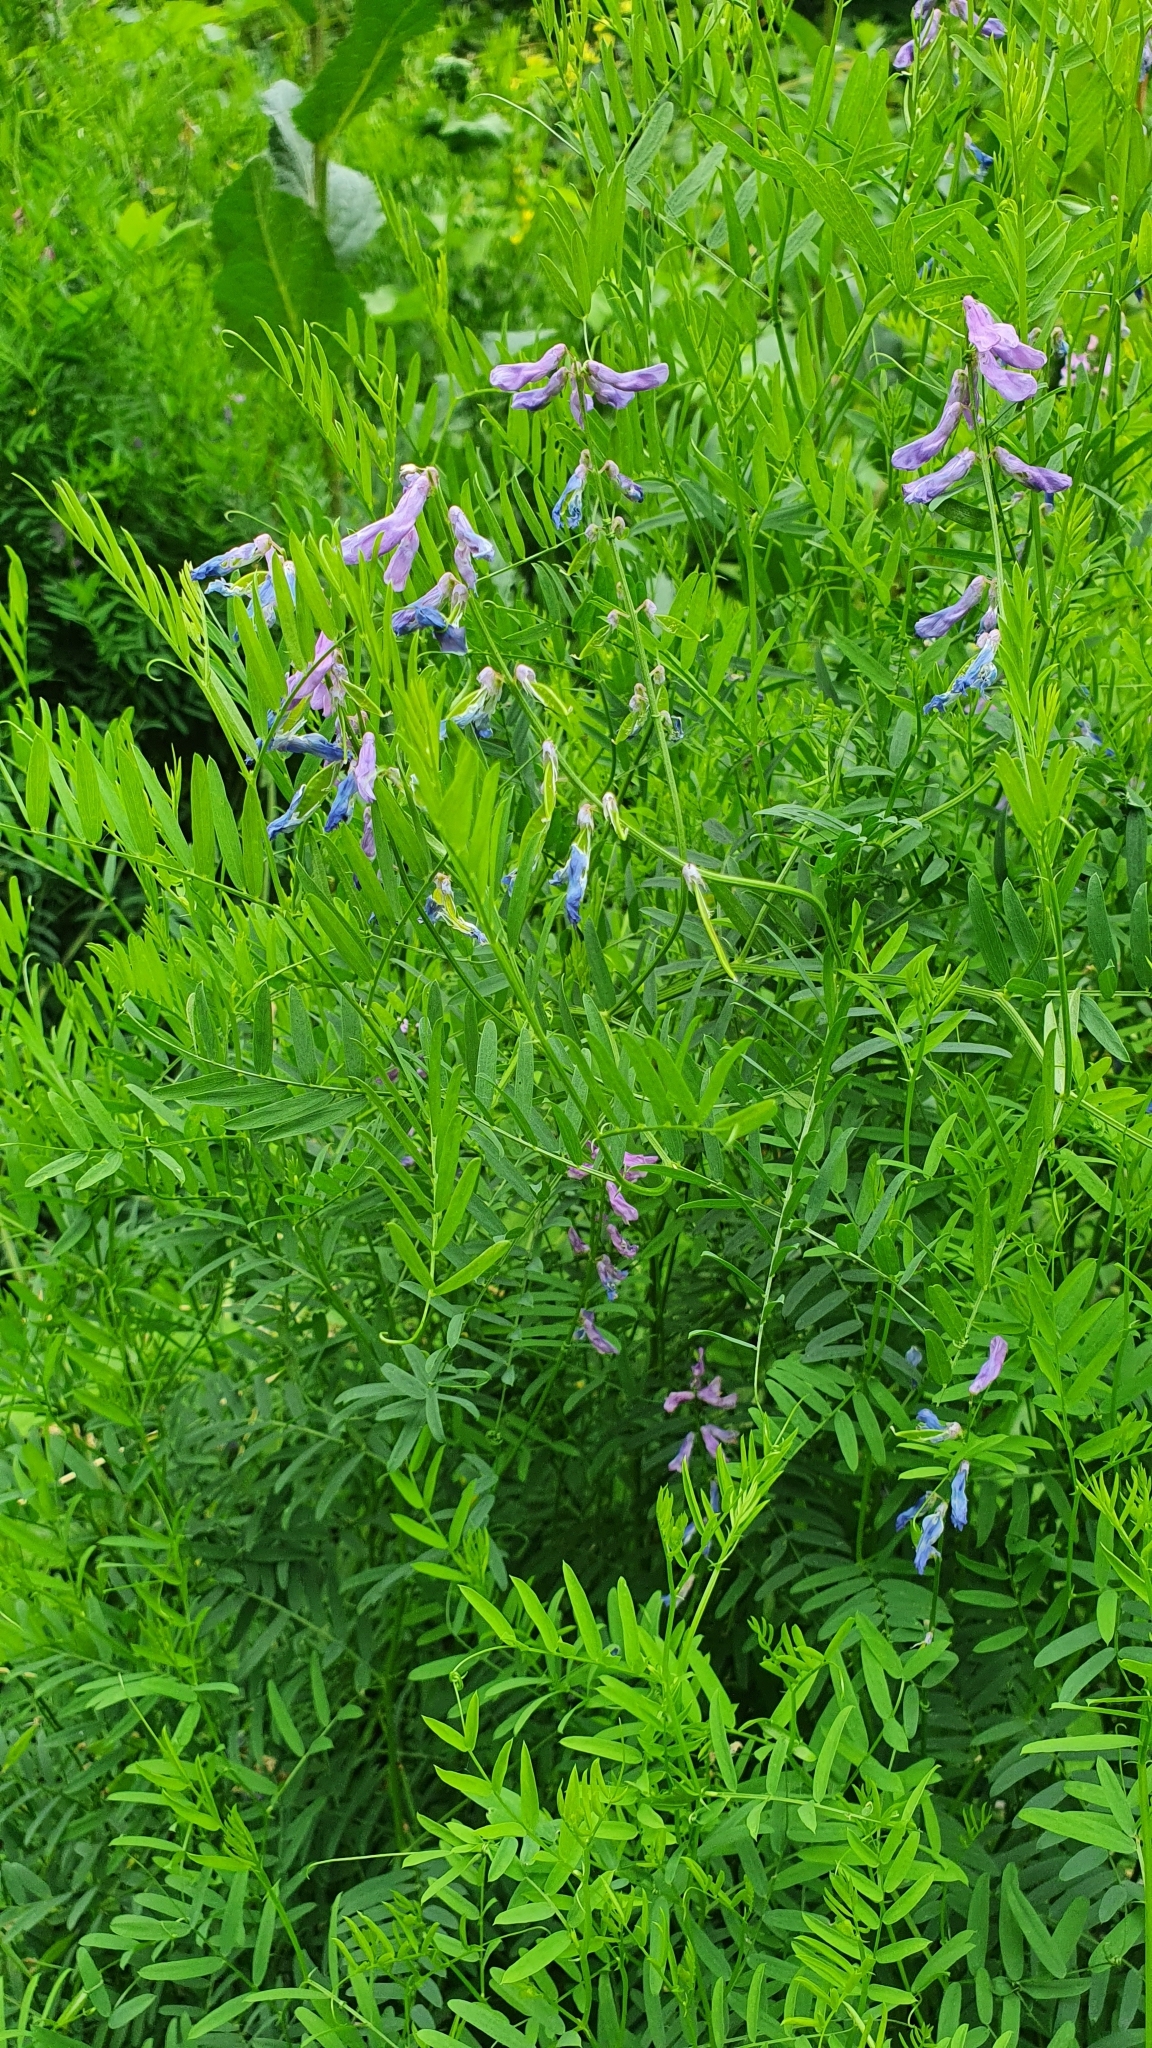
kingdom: Plantae
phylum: Tracheophyta
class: Magnoliopsida
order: Fabales
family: Fabaceae
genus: Vicia
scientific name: Vicia tenuifolia
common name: Fine-leaved vetch
